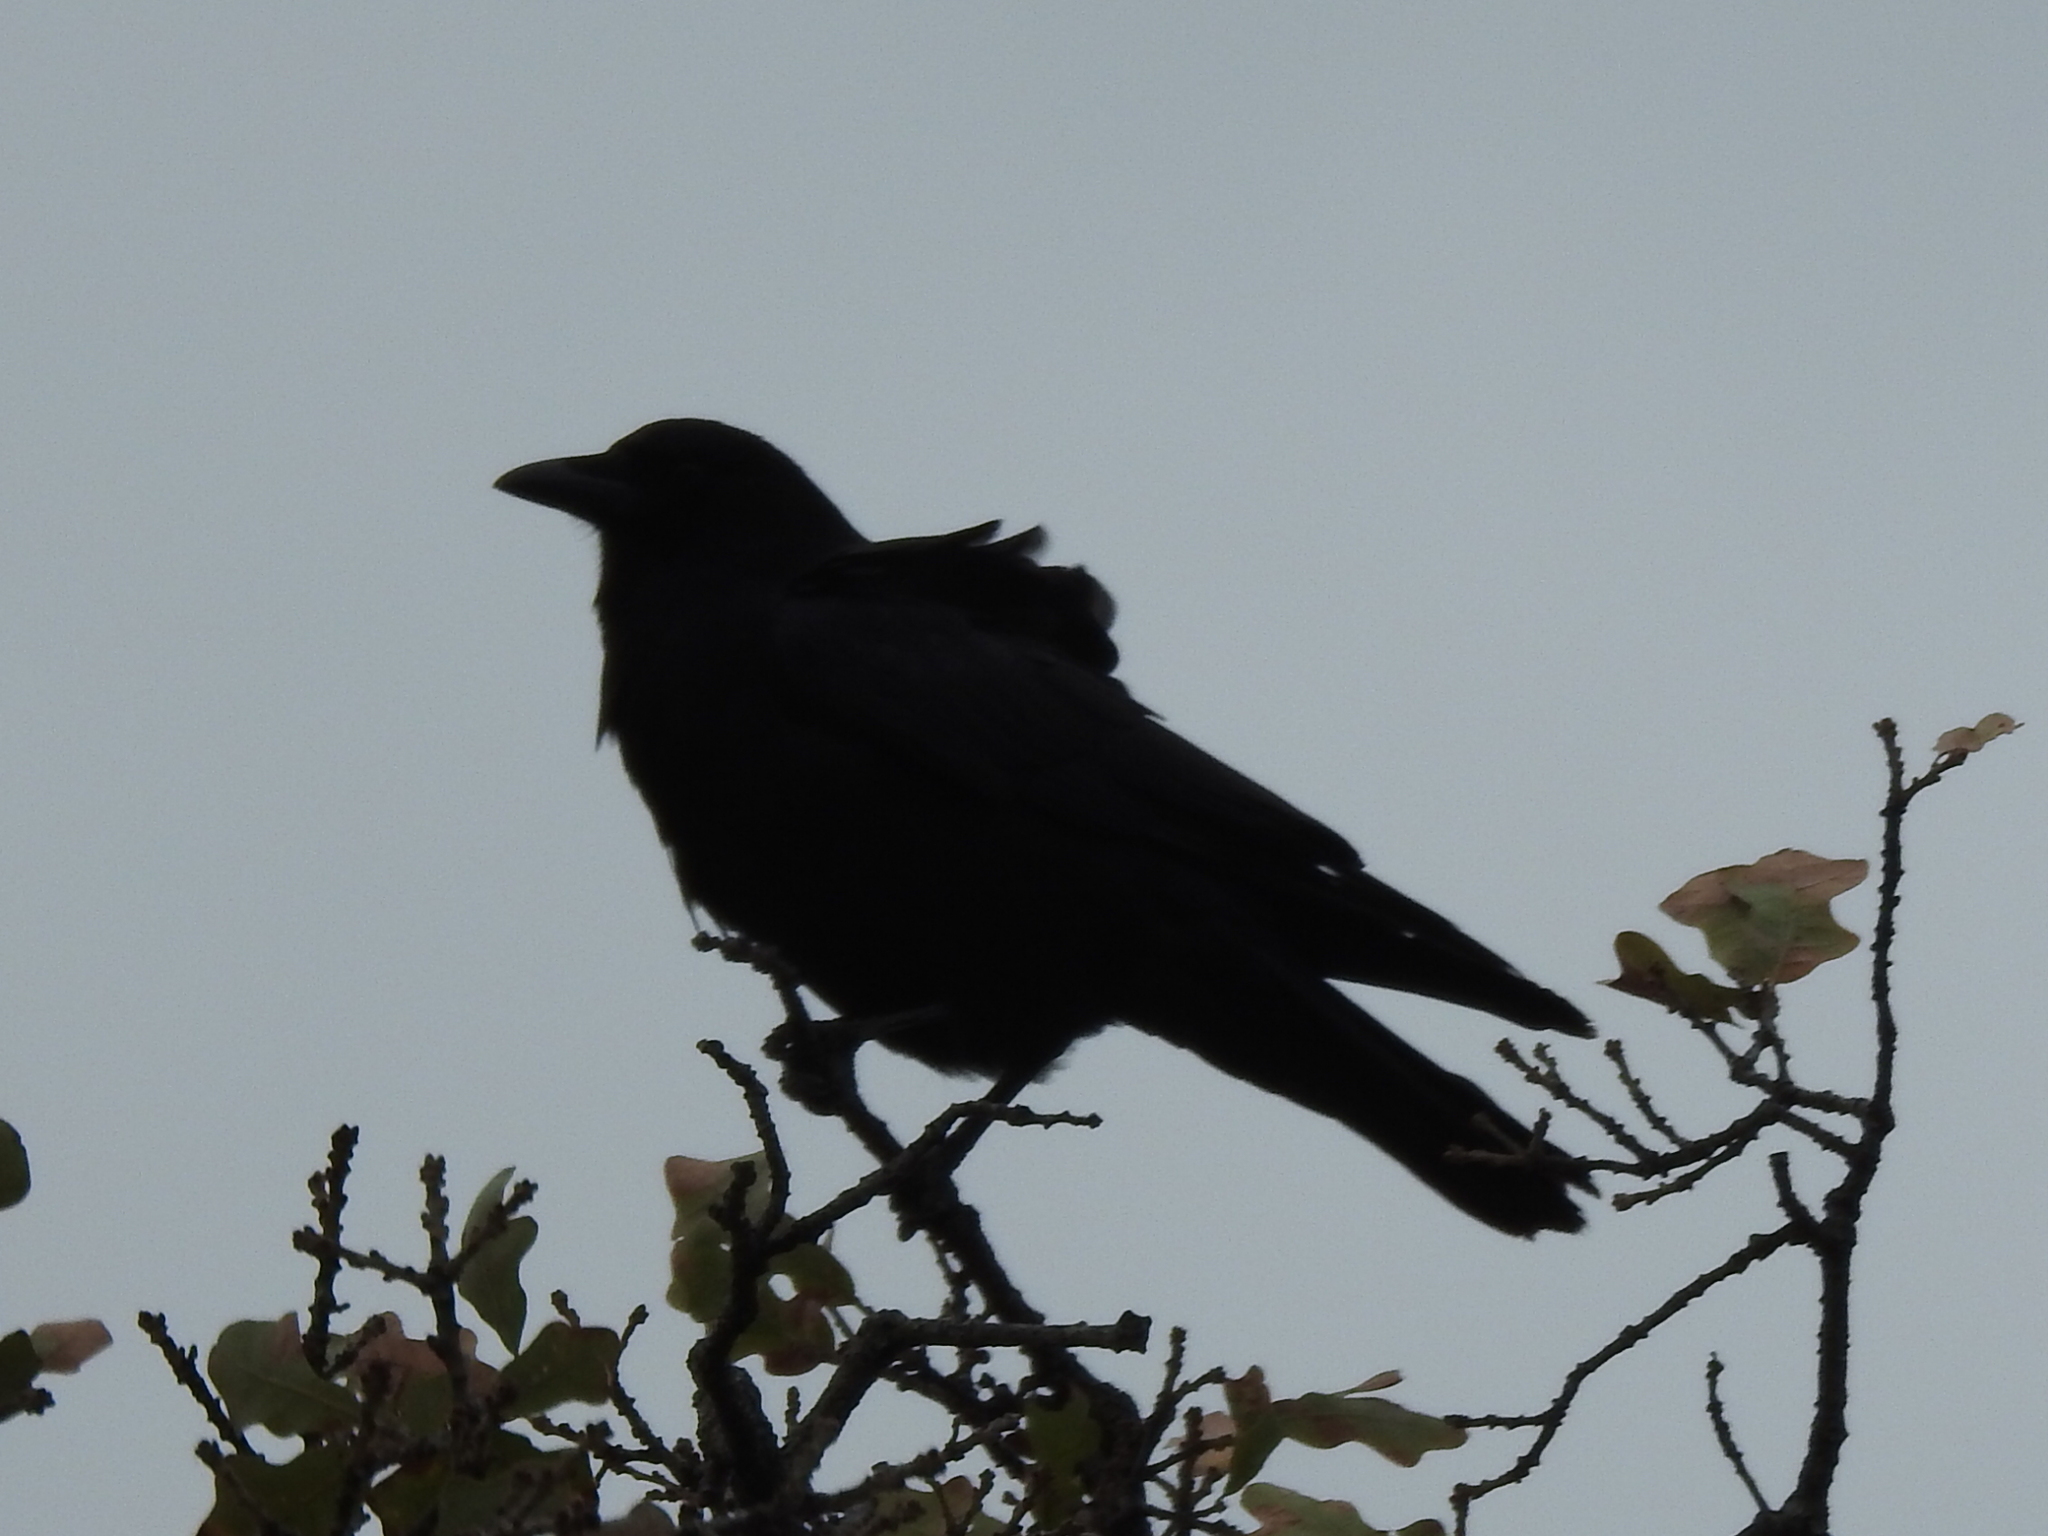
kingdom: Animalia
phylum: Chordata
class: Aves
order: Passeriformes
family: Corvidae
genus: Corvus
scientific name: Corvus brachyrhynchos
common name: American crow
